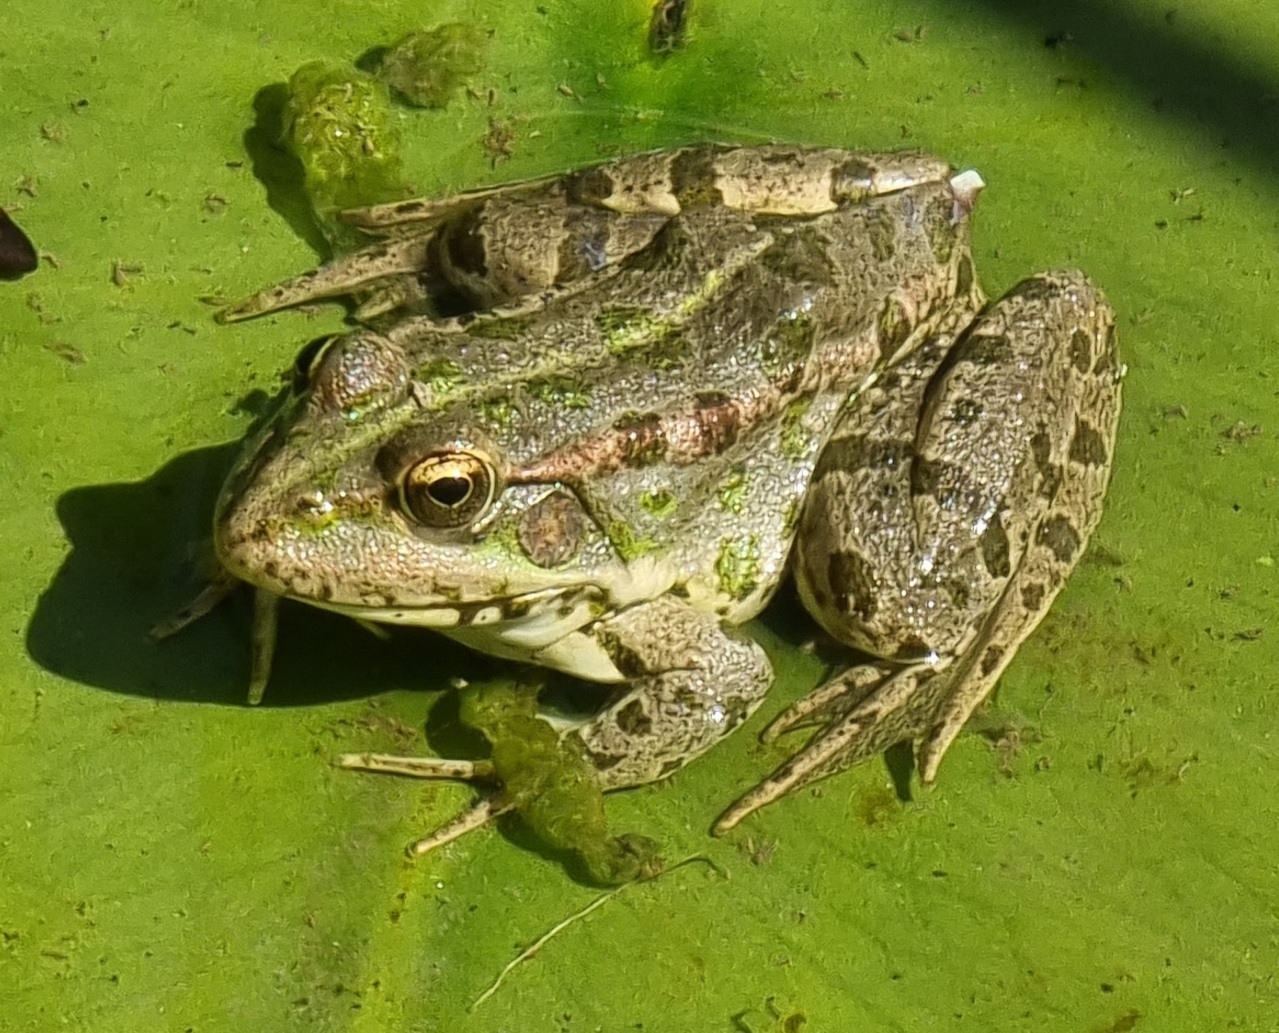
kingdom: Animalia
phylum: Chordata
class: Amphibia
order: Anura
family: Ranidae
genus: Pelophylax
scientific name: Pelophylax ridibundus
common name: Marsh frog
